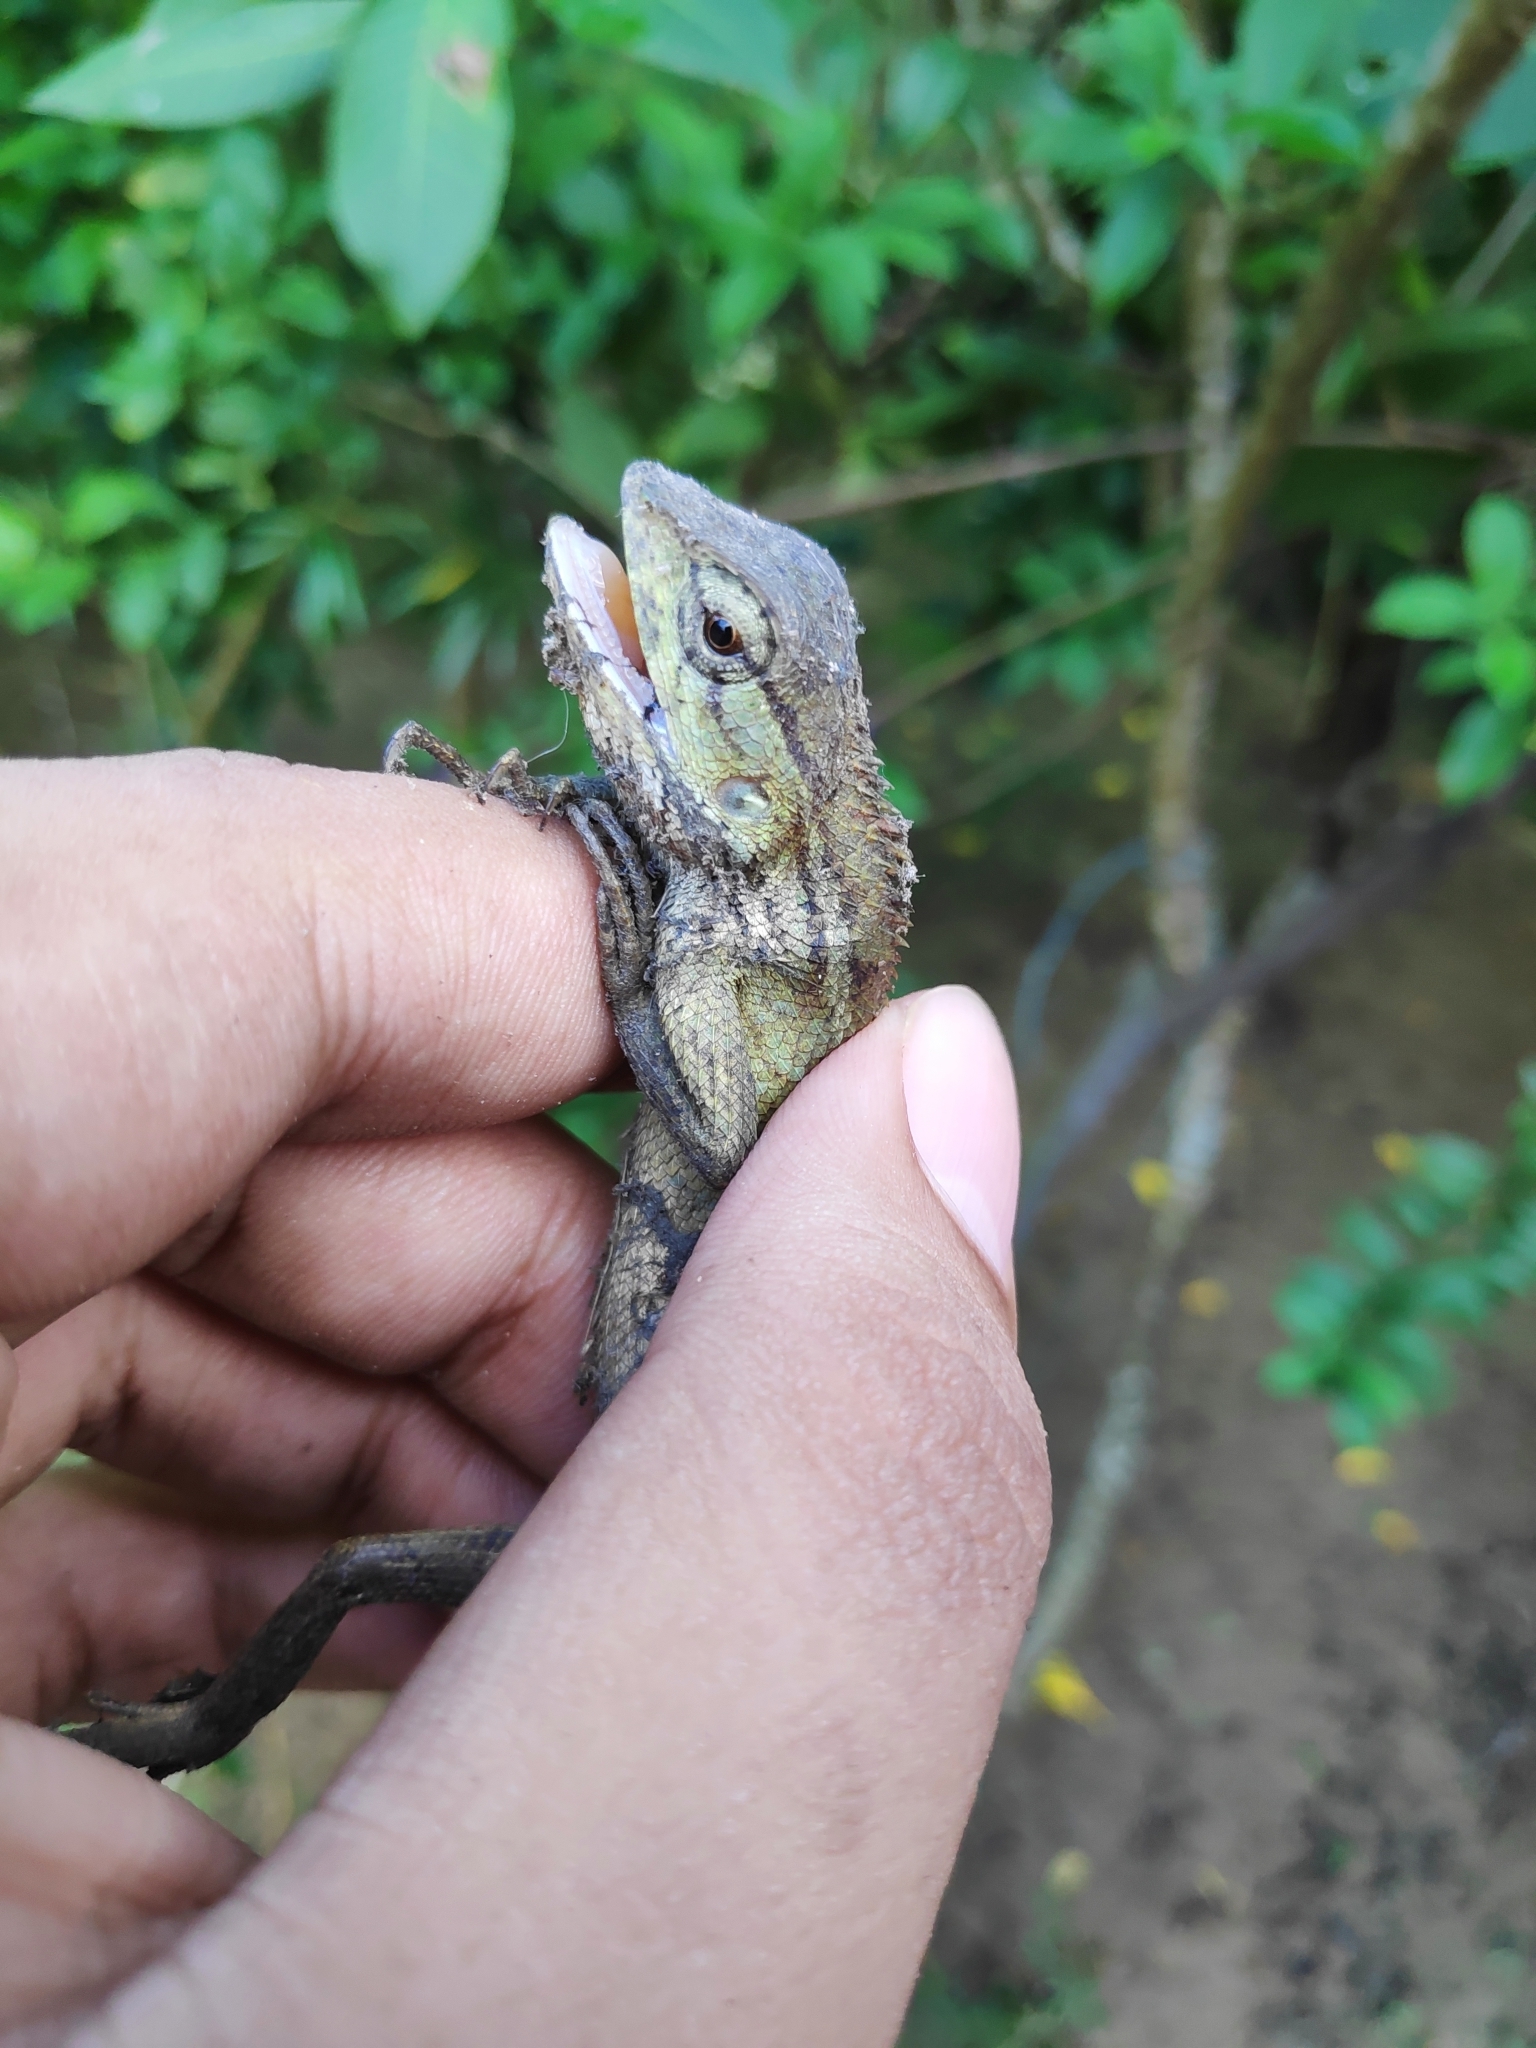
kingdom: Animalia
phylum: Chordata
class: Squamata
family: Agamidae
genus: Calotes
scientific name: Calotes jerdoni
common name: Jerdon's forest lizard
